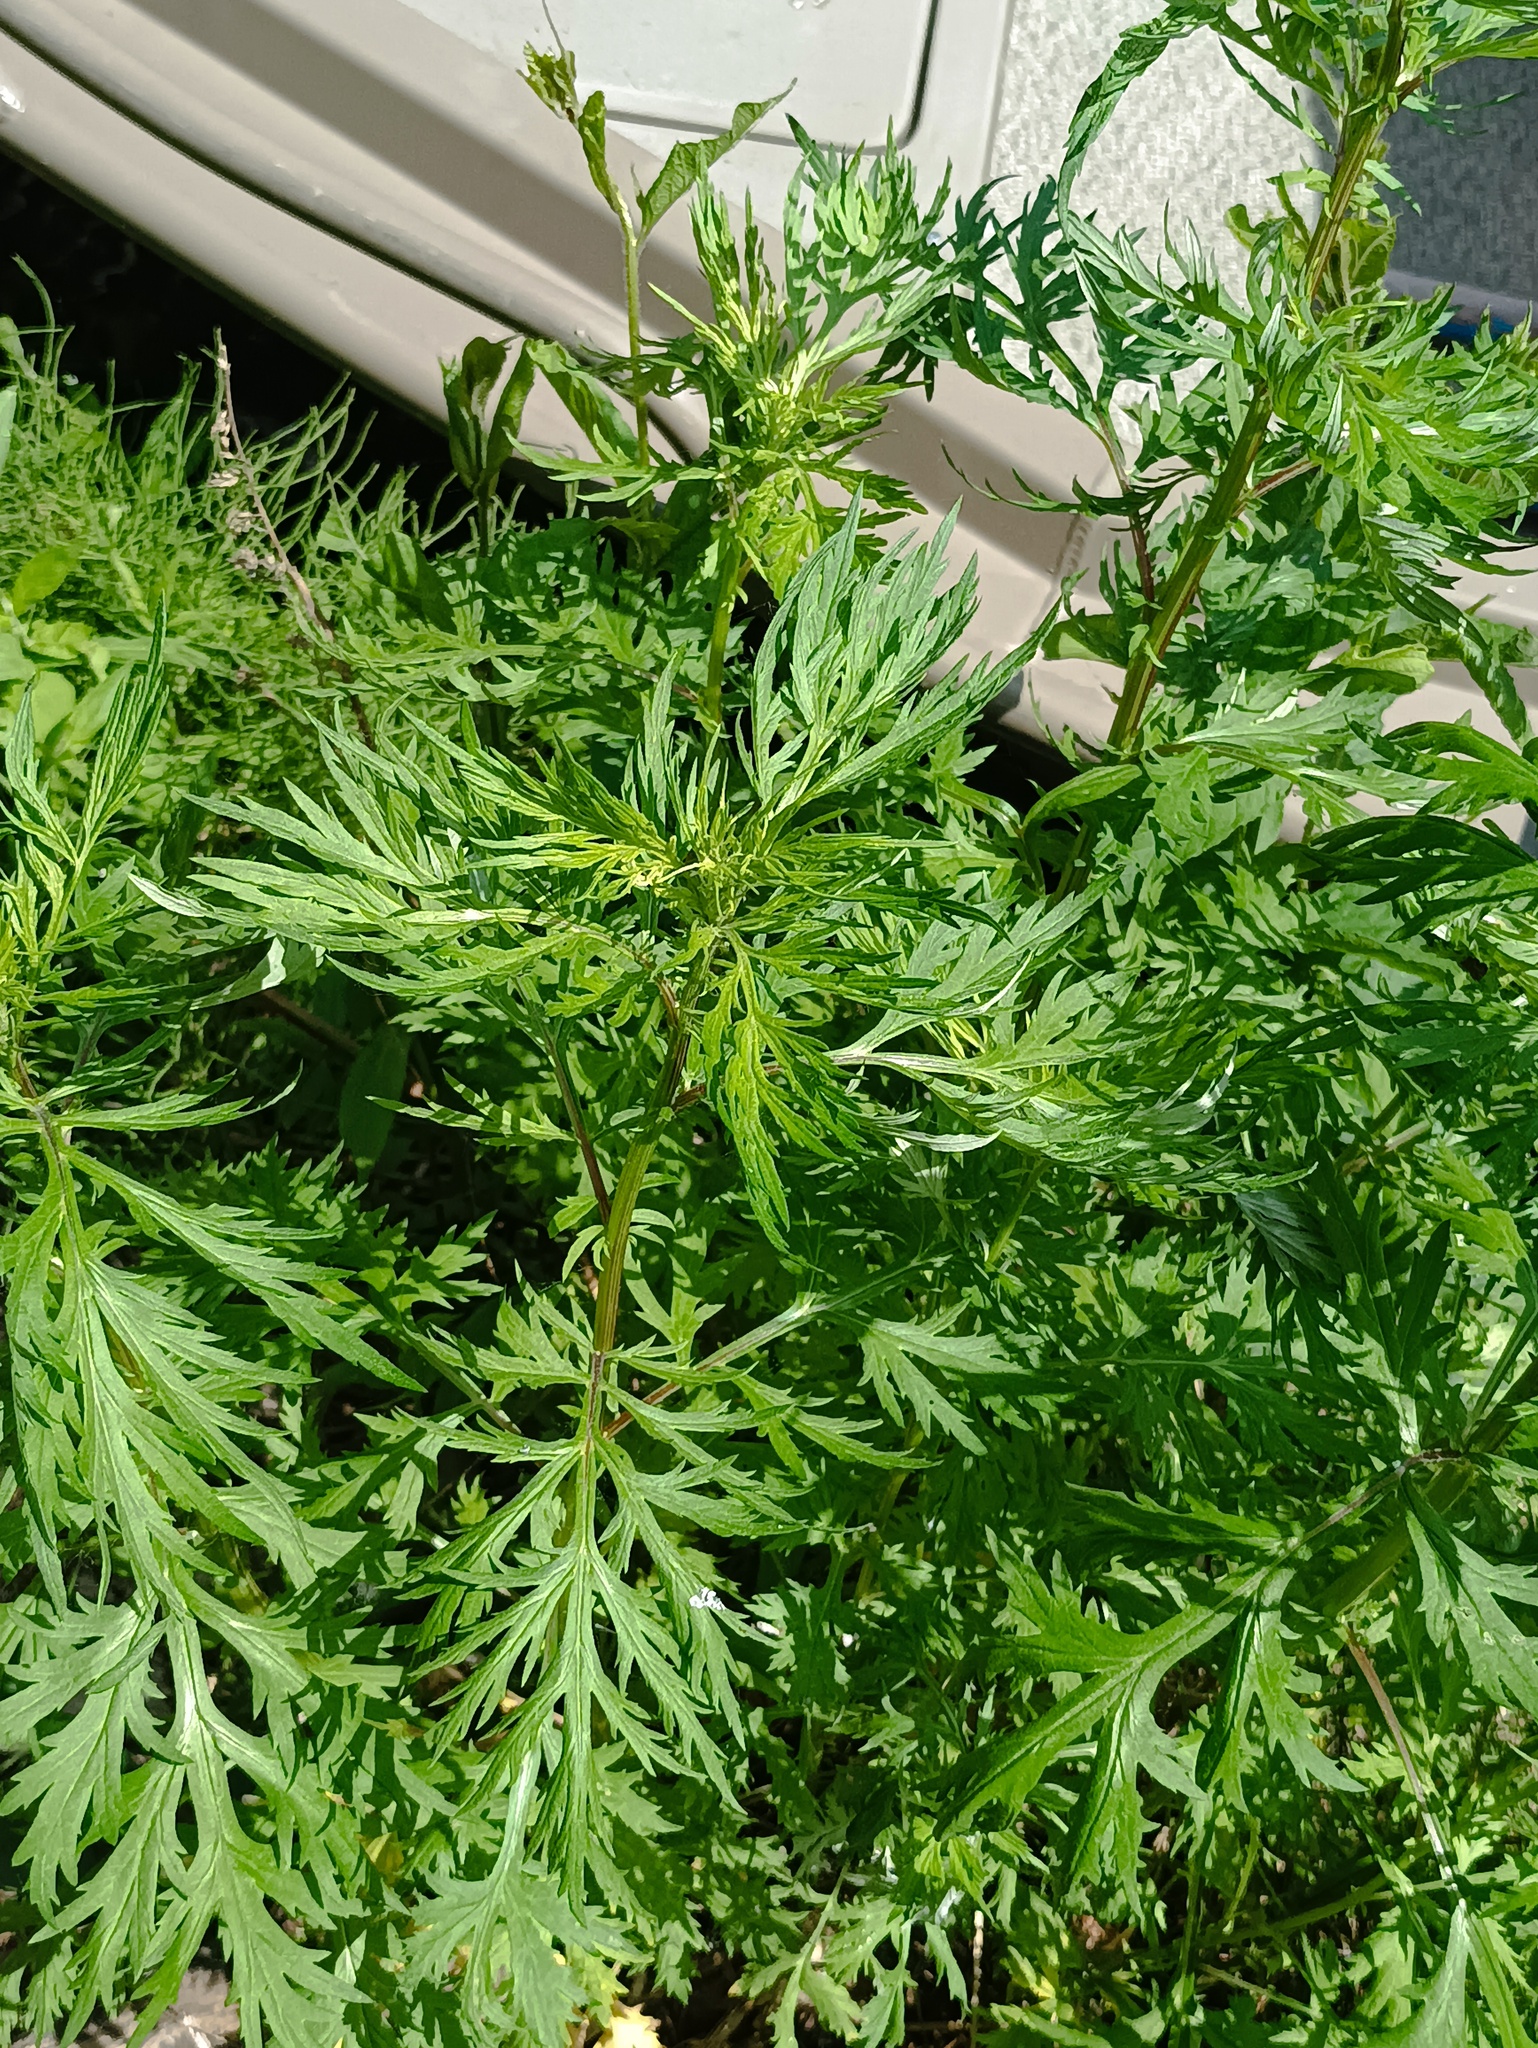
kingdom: Plantae
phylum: Tracheophyta
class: Magnoliopsida
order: Asterales
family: Asteraceae
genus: Artemisia
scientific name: Artemisia vulgaris
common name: Mugwort
